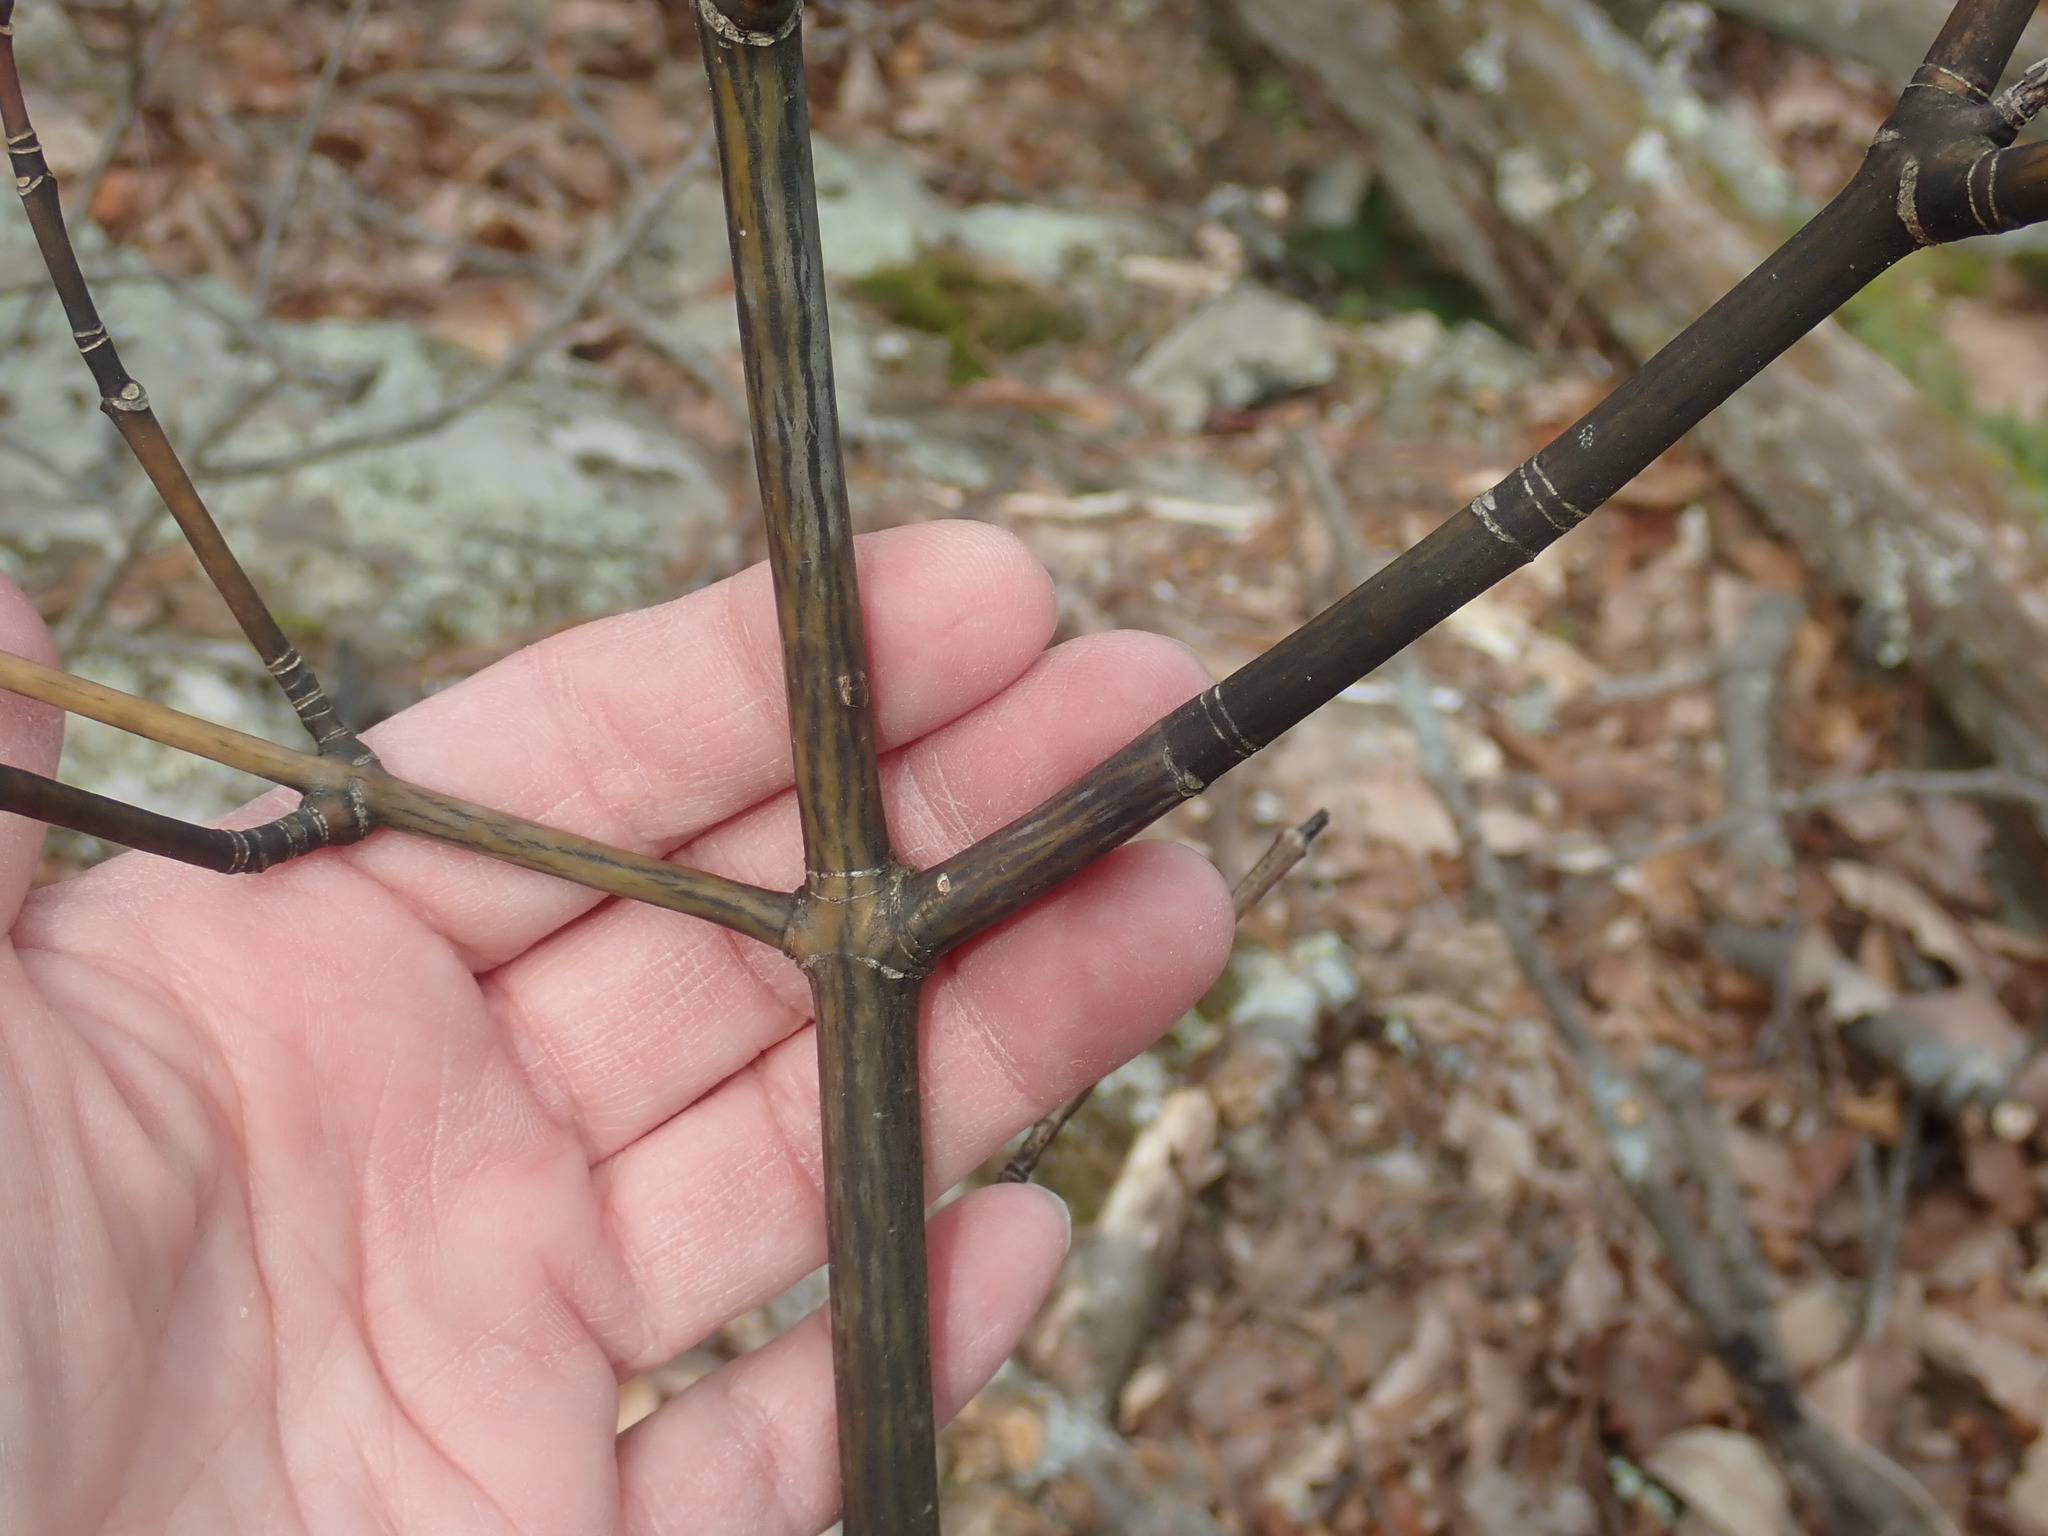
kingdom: Plantae
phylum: Tracheophyta
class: Magnoliopsida
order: Sapindales
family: Sapindaceae
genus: Acer
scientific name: Acer pensylvanicum
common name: Moosewood
